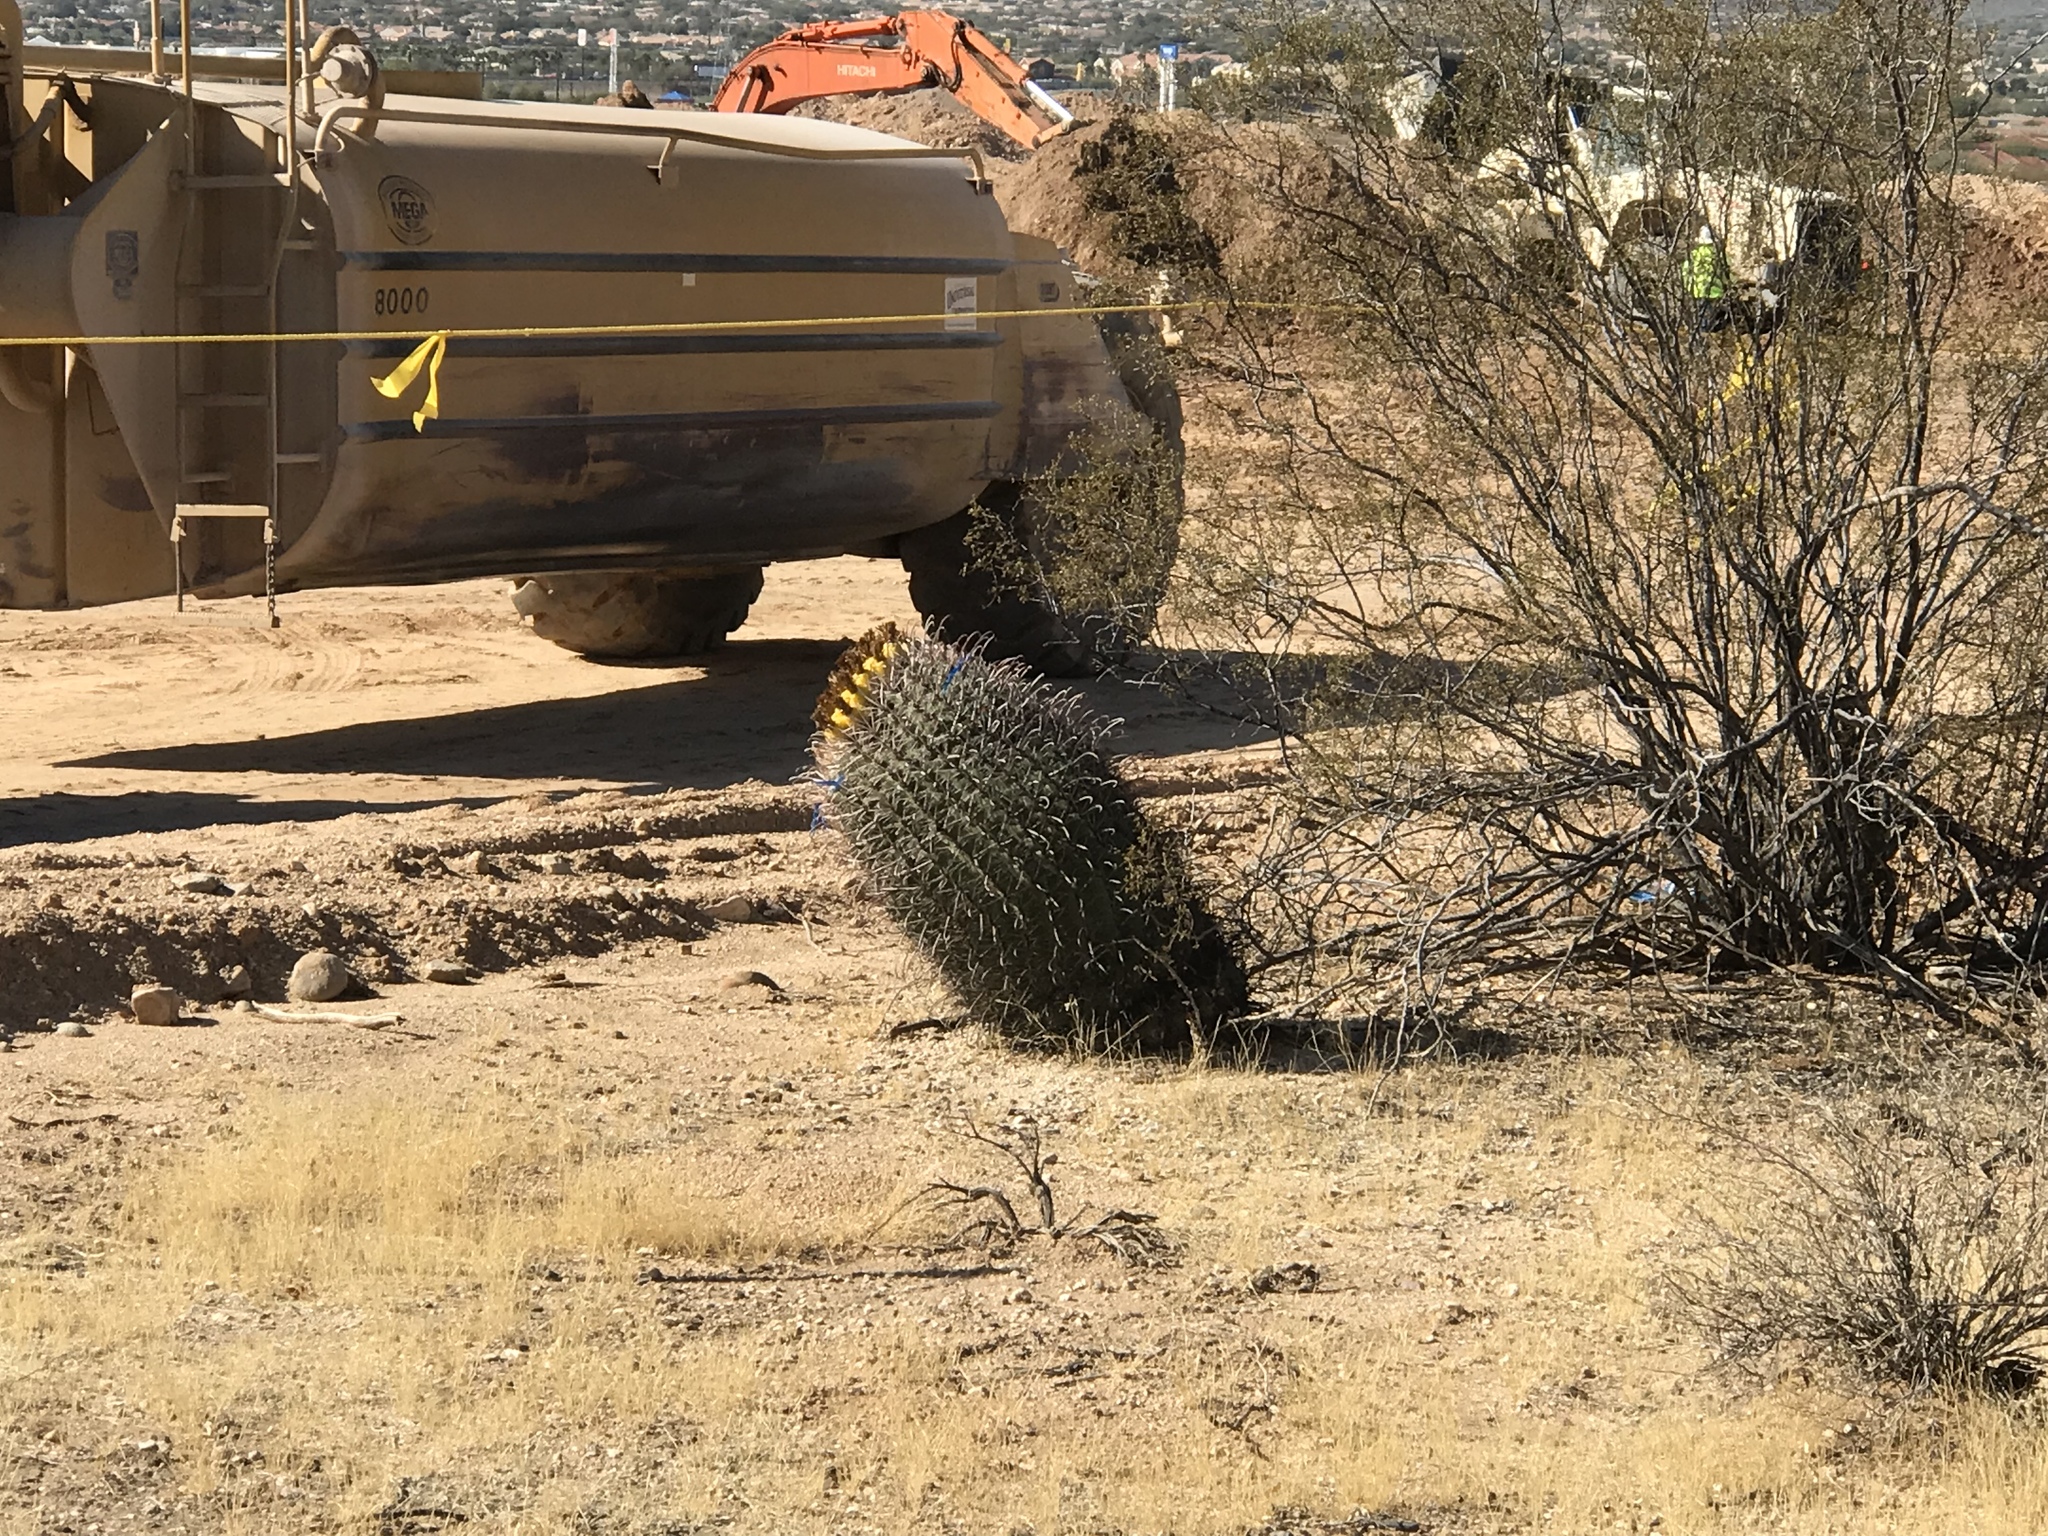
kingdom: Plantae
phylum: Tracheophyta
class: Magnoliopsida
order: Caryophyllales
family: Cactaceae
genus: Ferocactus
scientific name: Ferocactus wislizeni
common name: Candy barrel cactus
